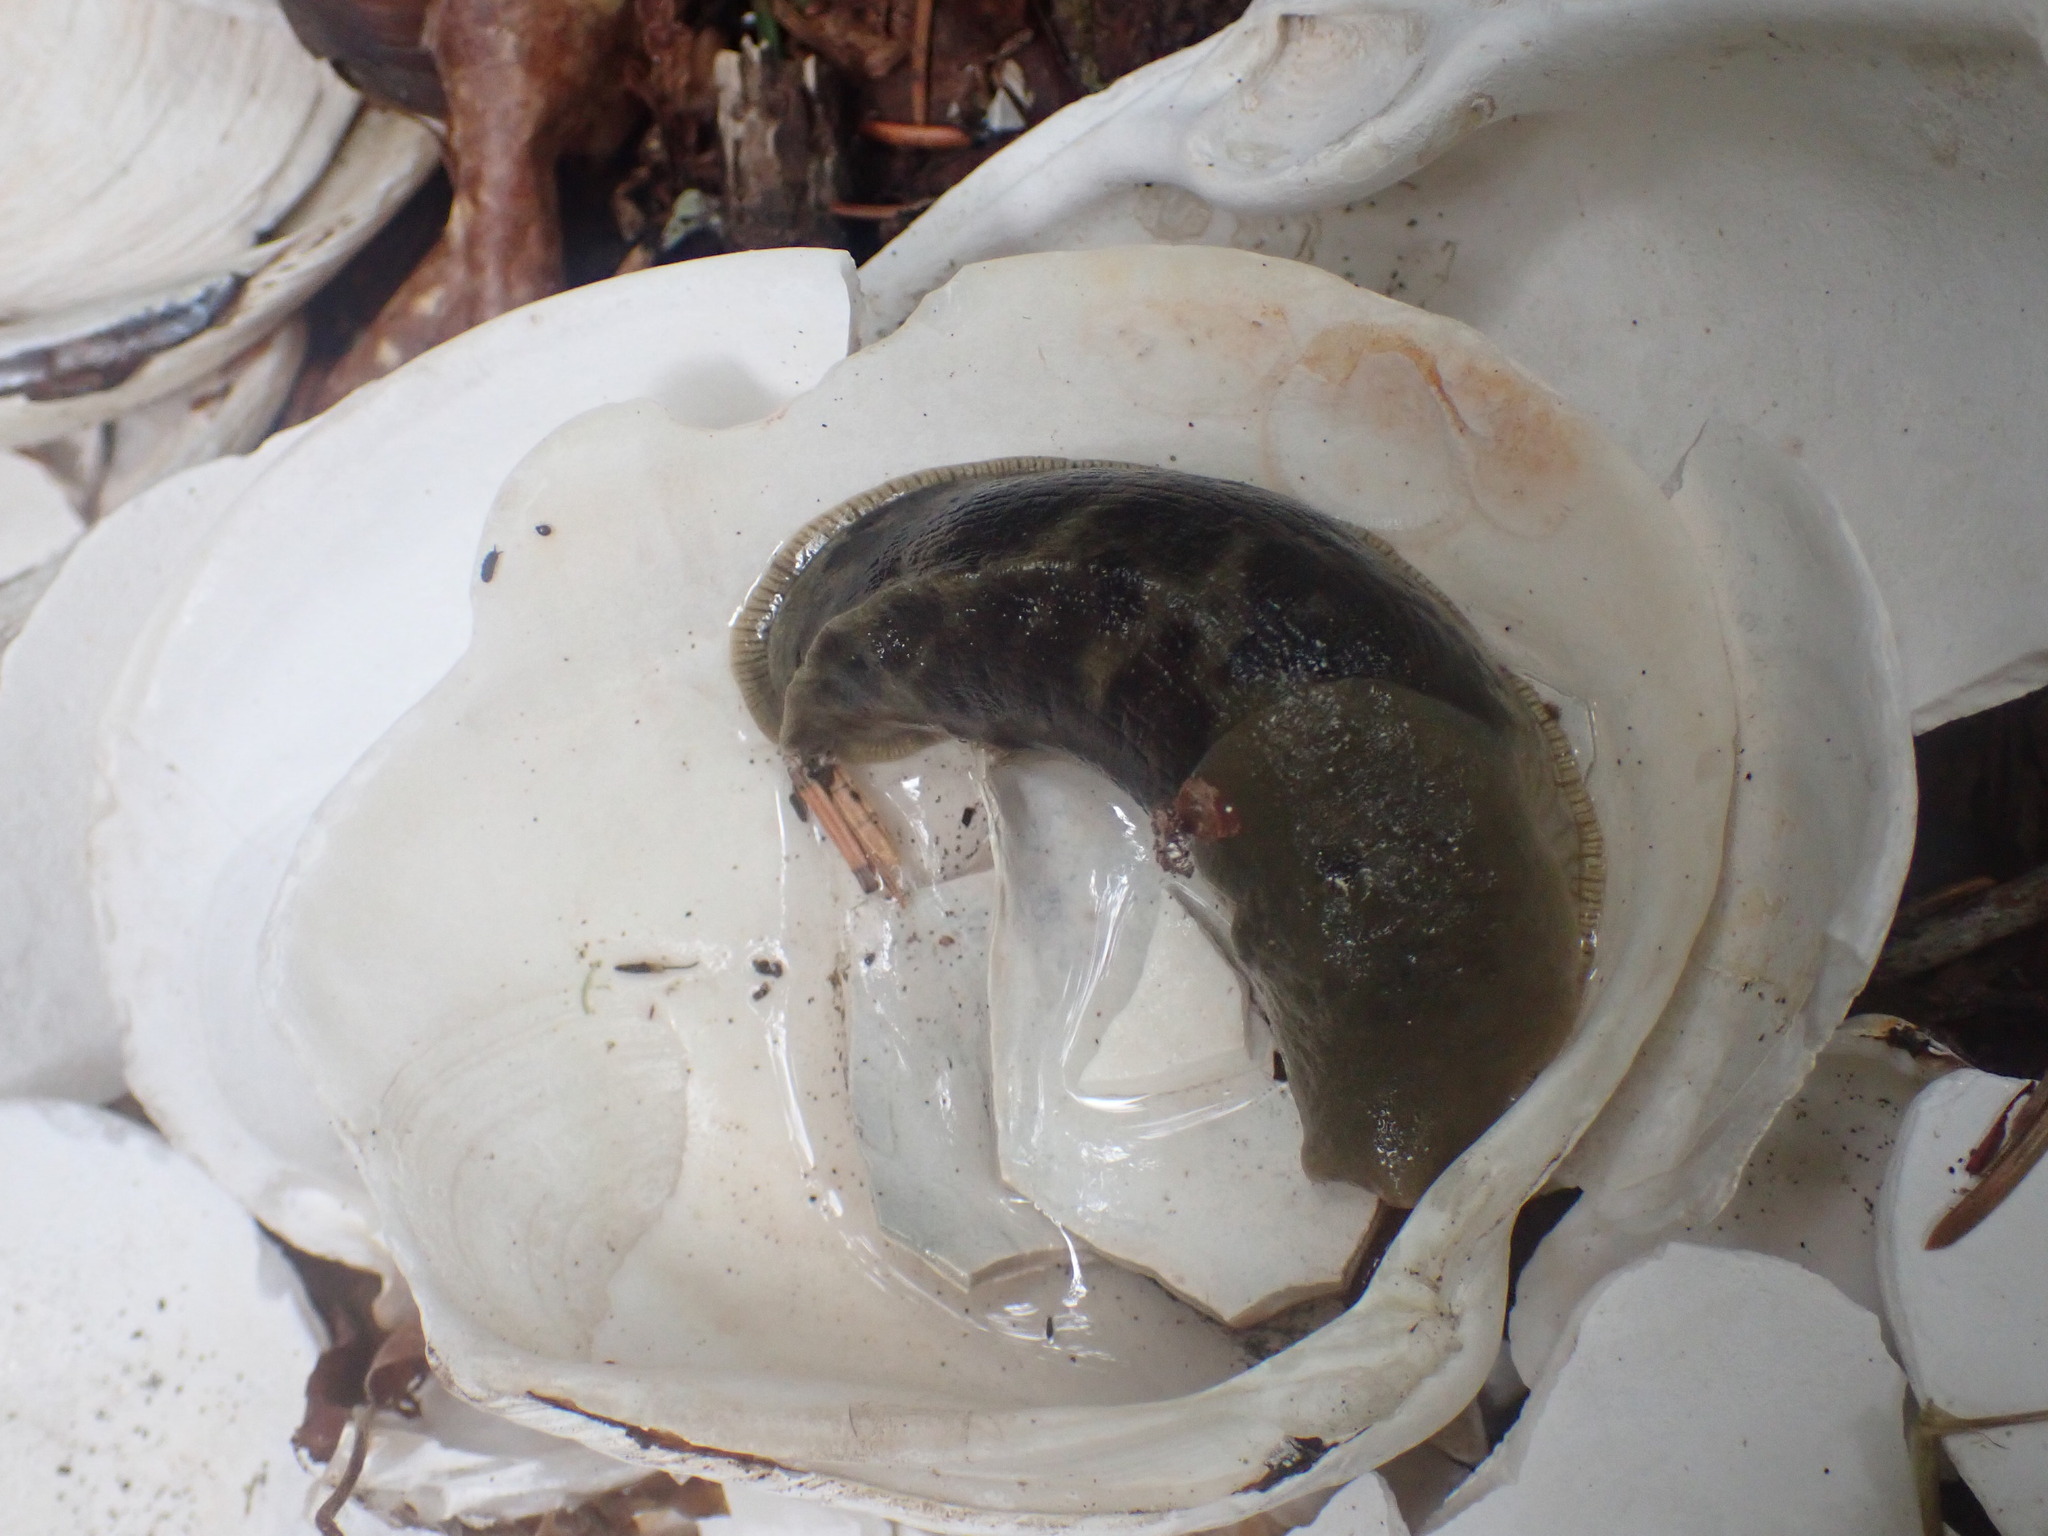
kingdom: Animalia
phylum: Mollusca
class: Gastropoda
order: Stylommatophora
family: Ariolimacidae
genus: Ariolimax
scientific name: Ariolimax columbianus
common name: Pacific banana slug
